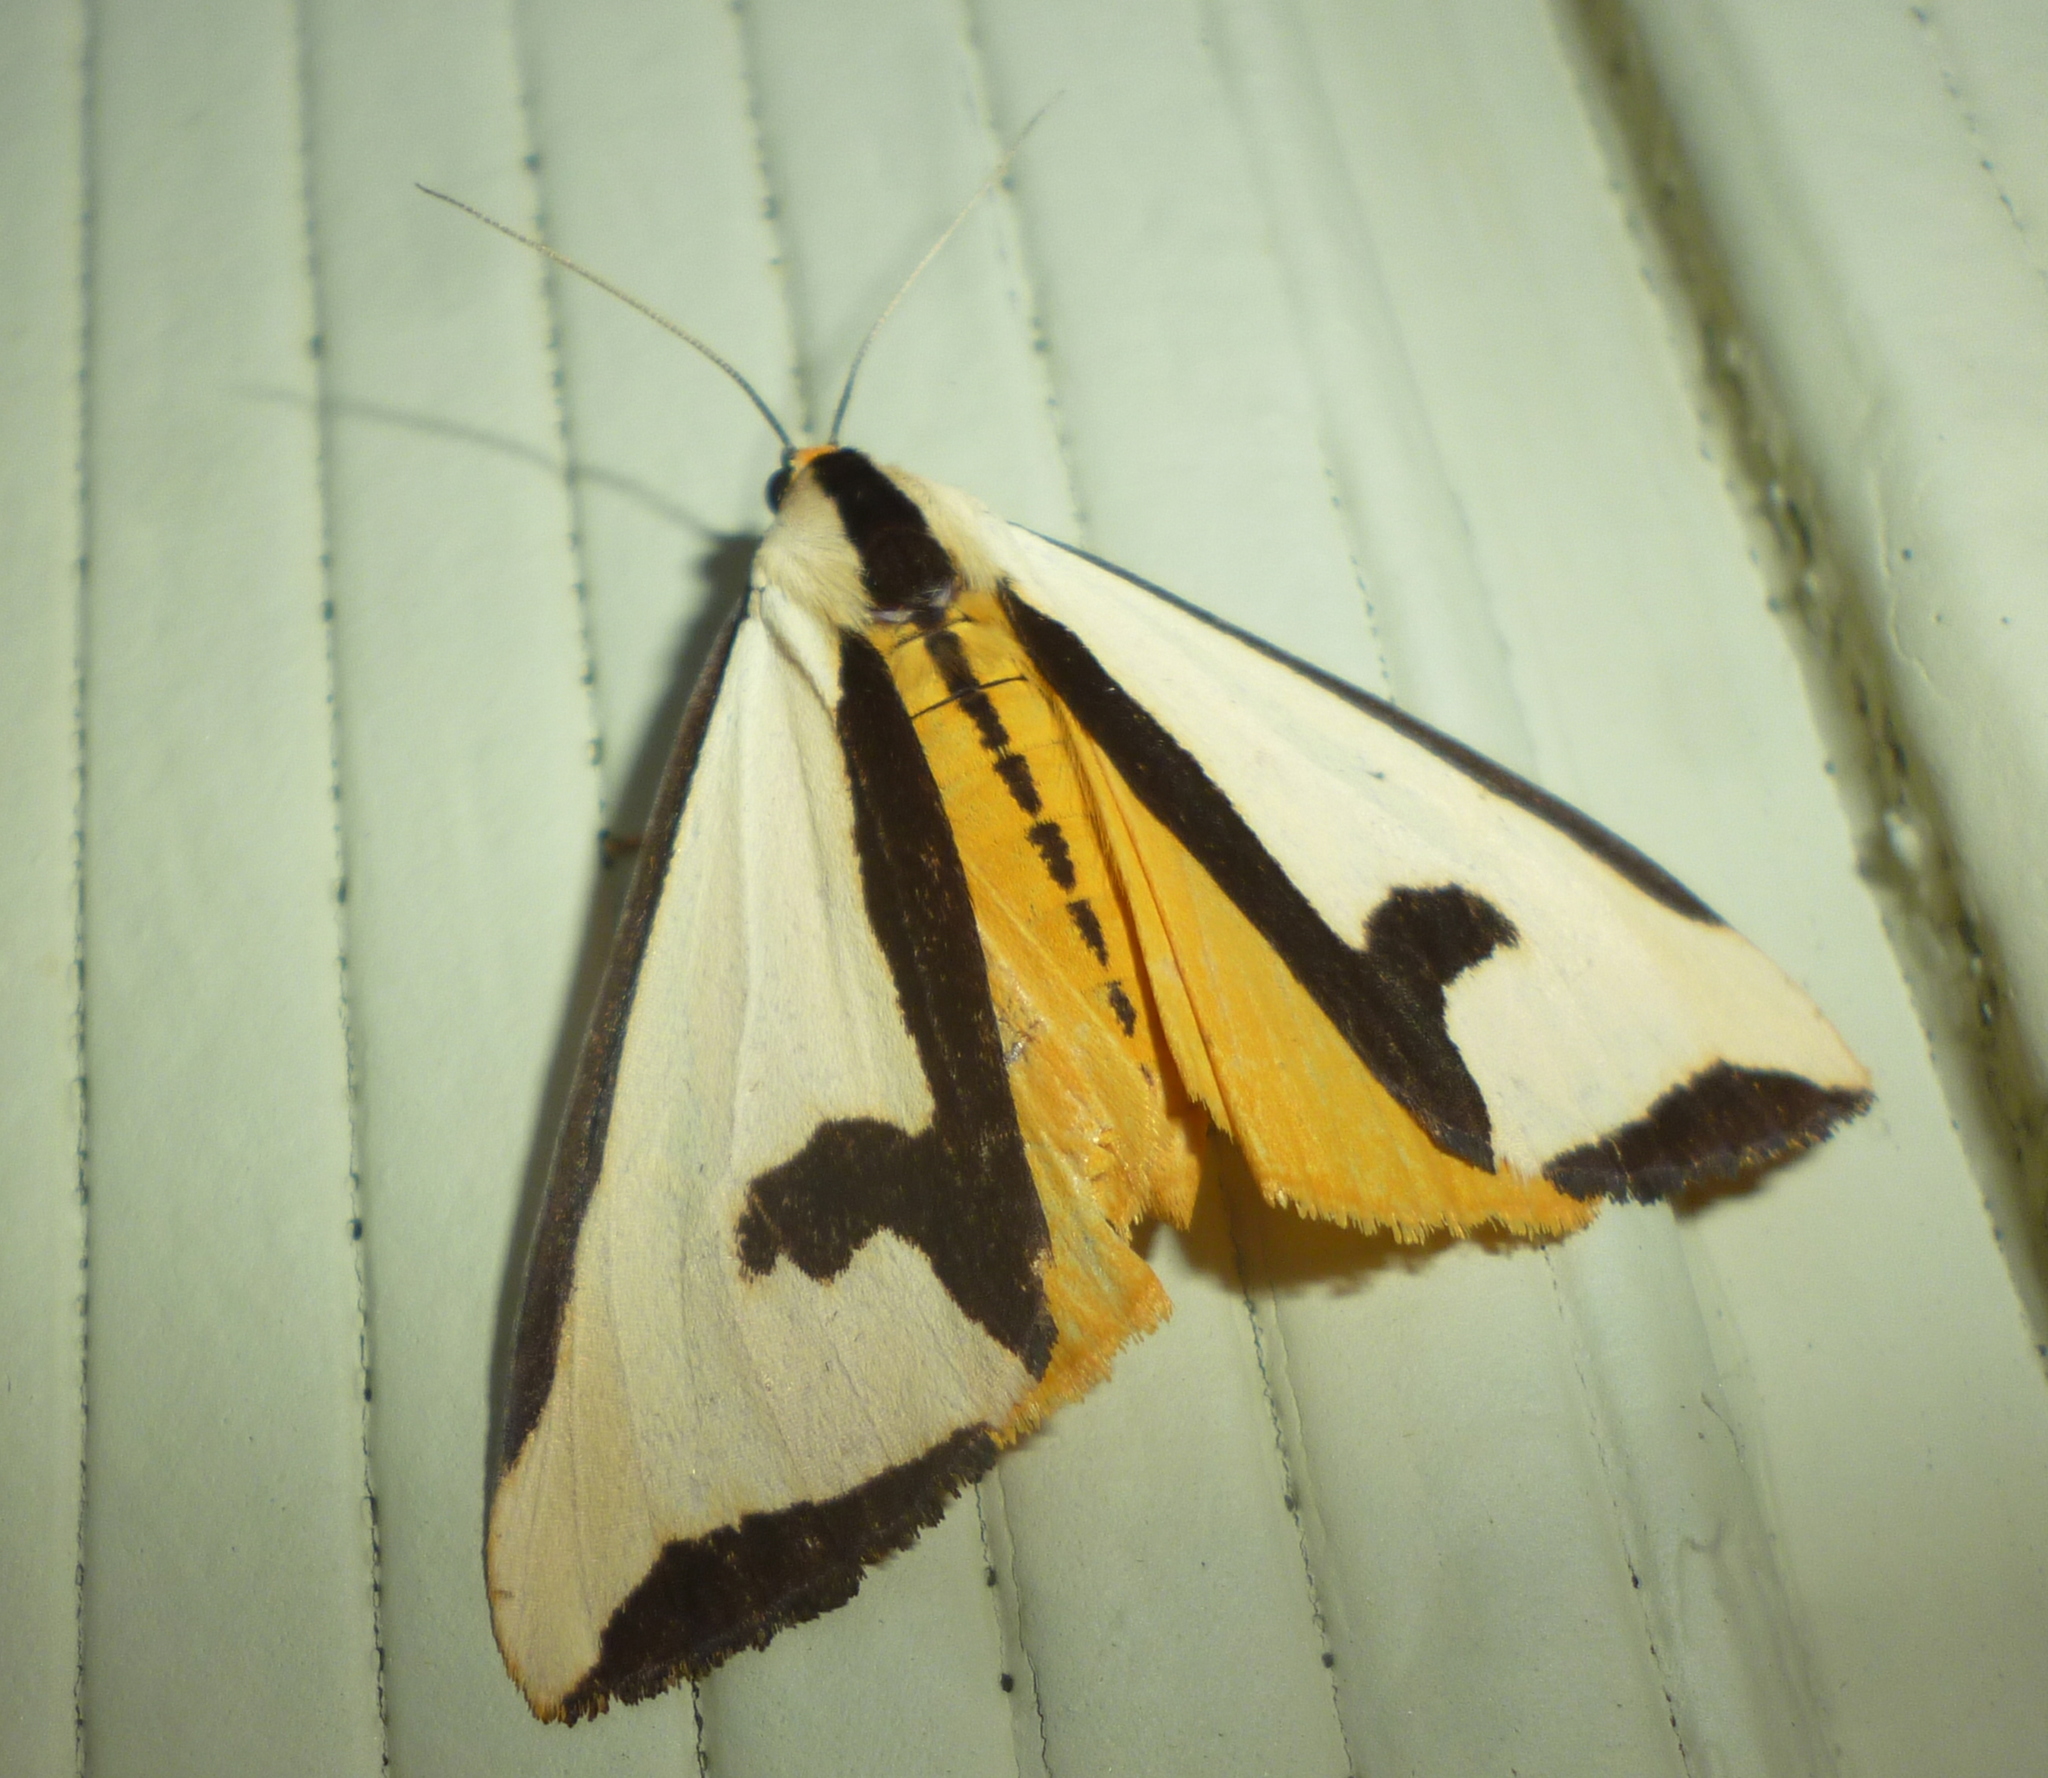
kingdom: Animalia
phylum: Arthropoda
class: Insecta
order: Lepidoptera
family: Erebidae
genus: Haploa
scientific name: Haploa clymene
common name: Clymene moth
